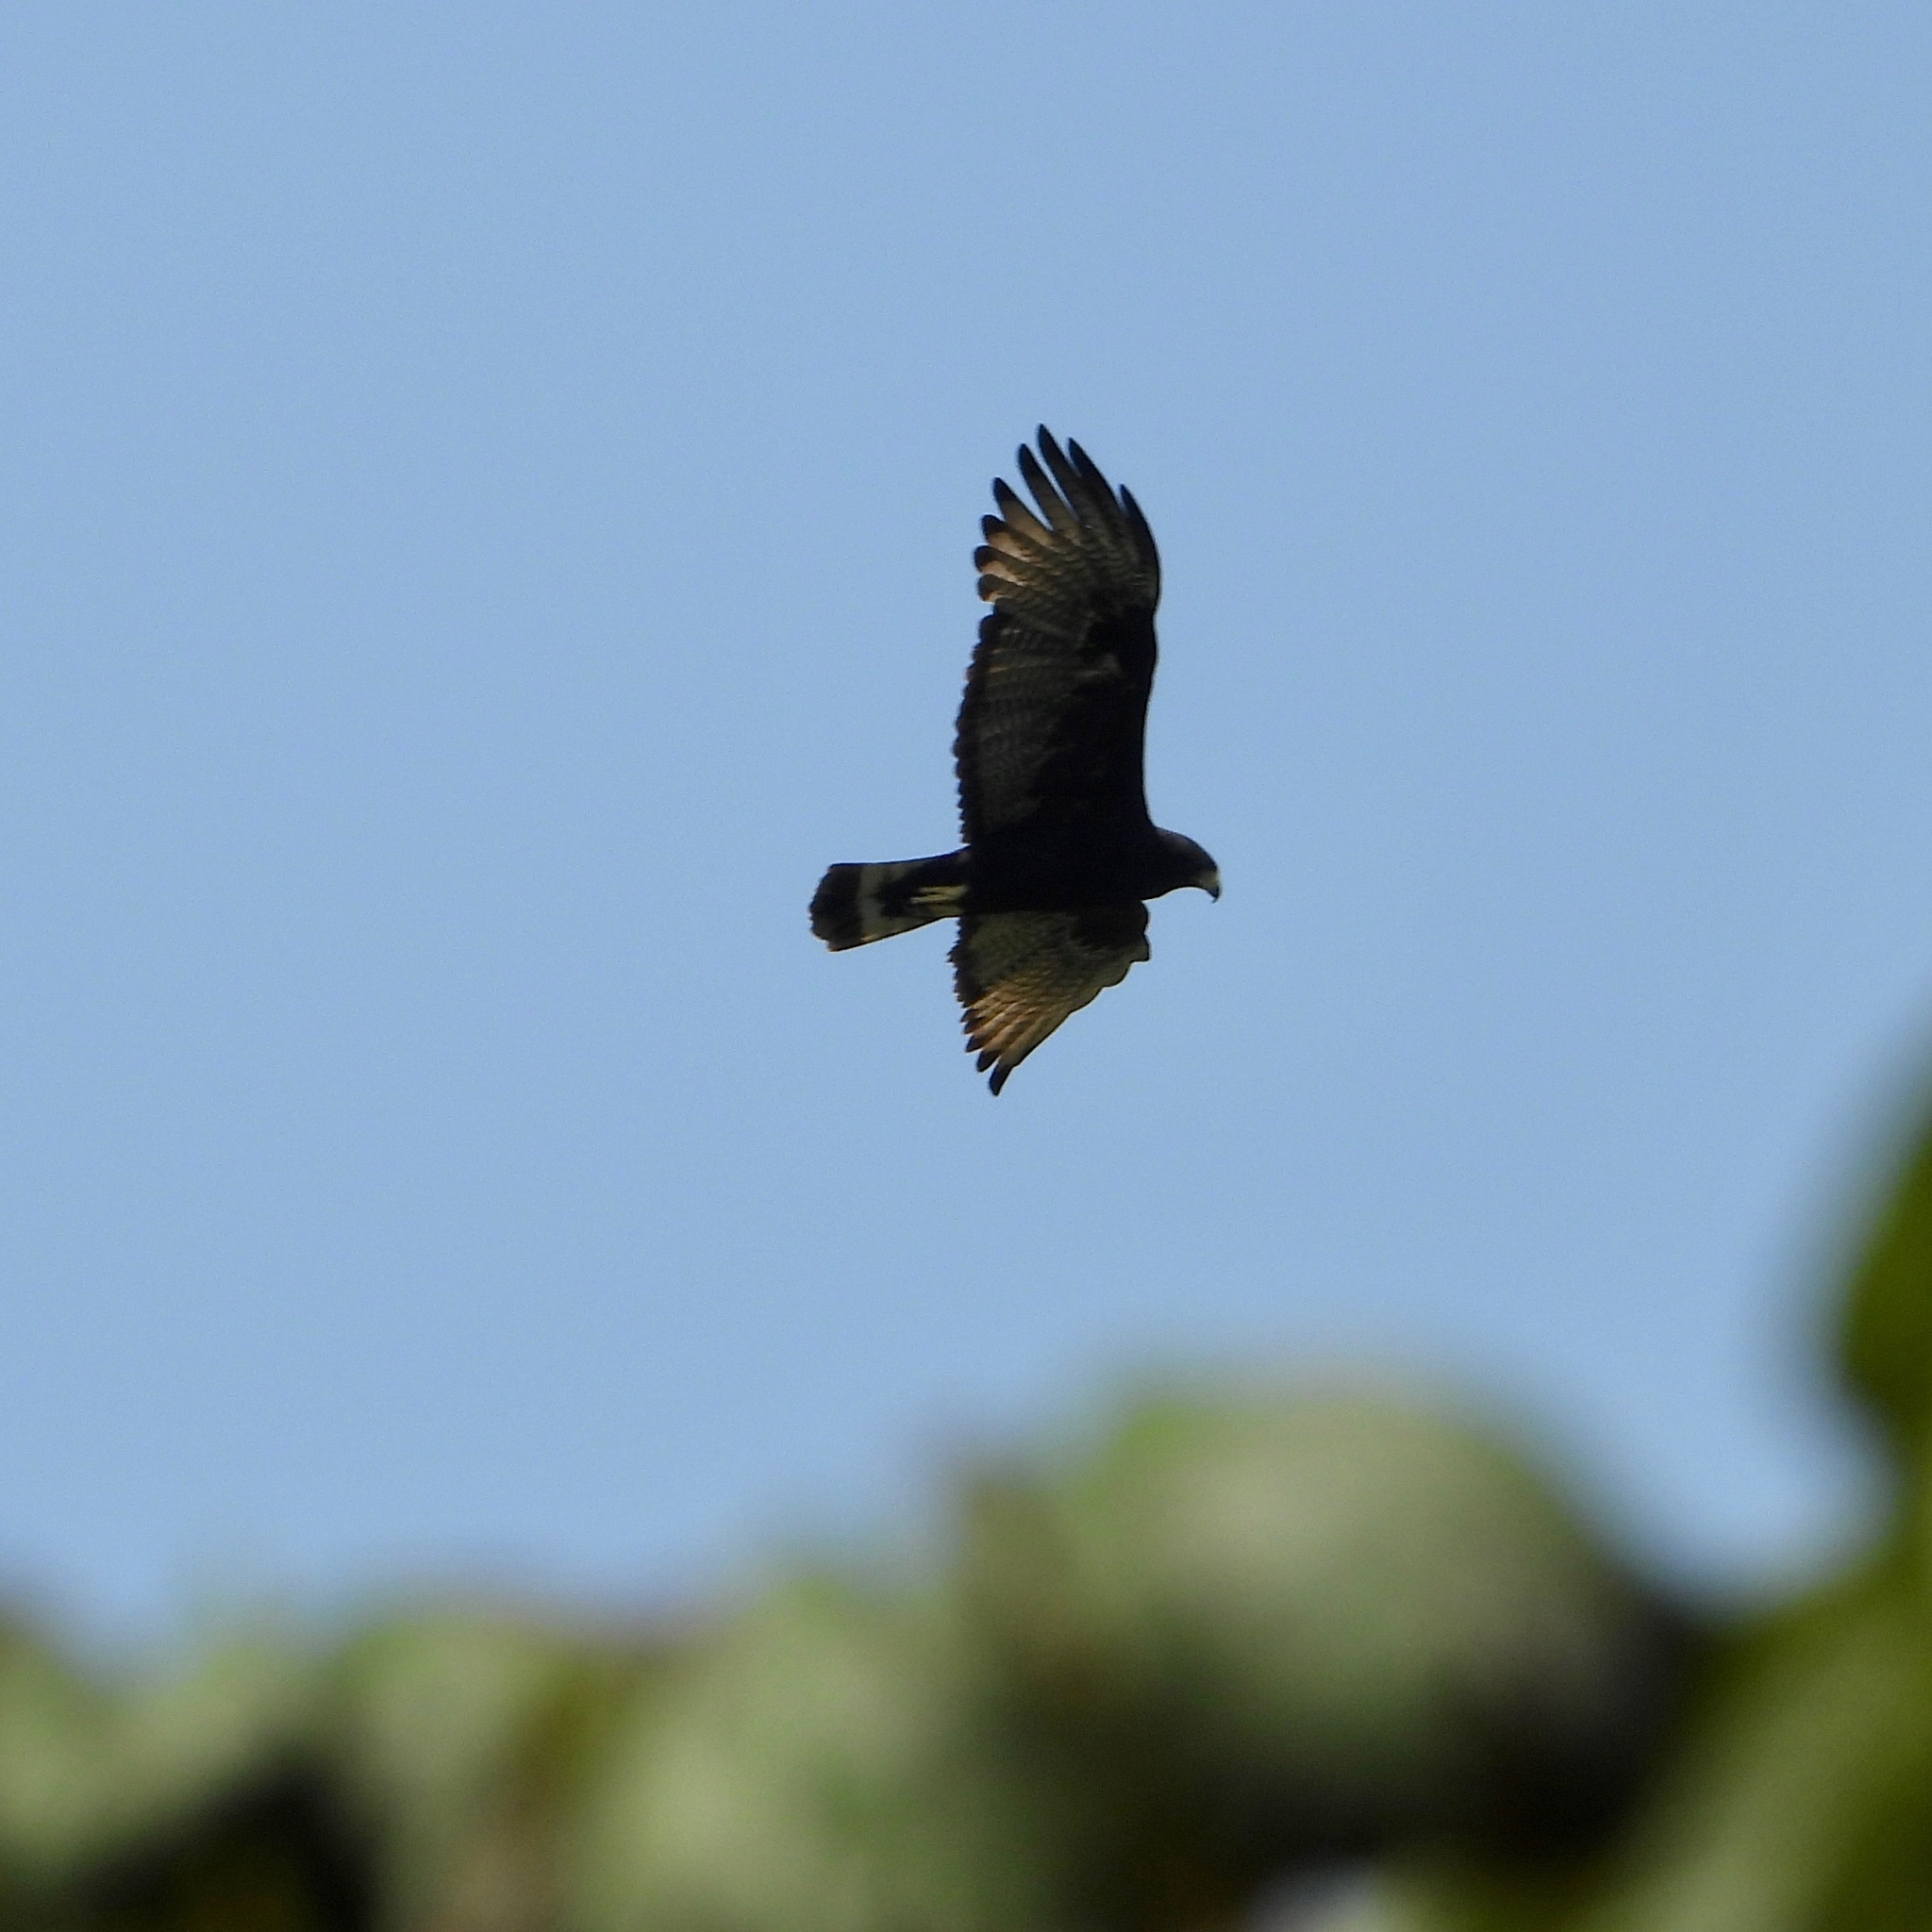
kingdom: Animalia
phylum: Chordata
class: Aves
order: Accipitriformes
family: Accipitridae
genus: Buteo
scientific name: Buteo albonotatus
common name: Zone-tailed hawk
